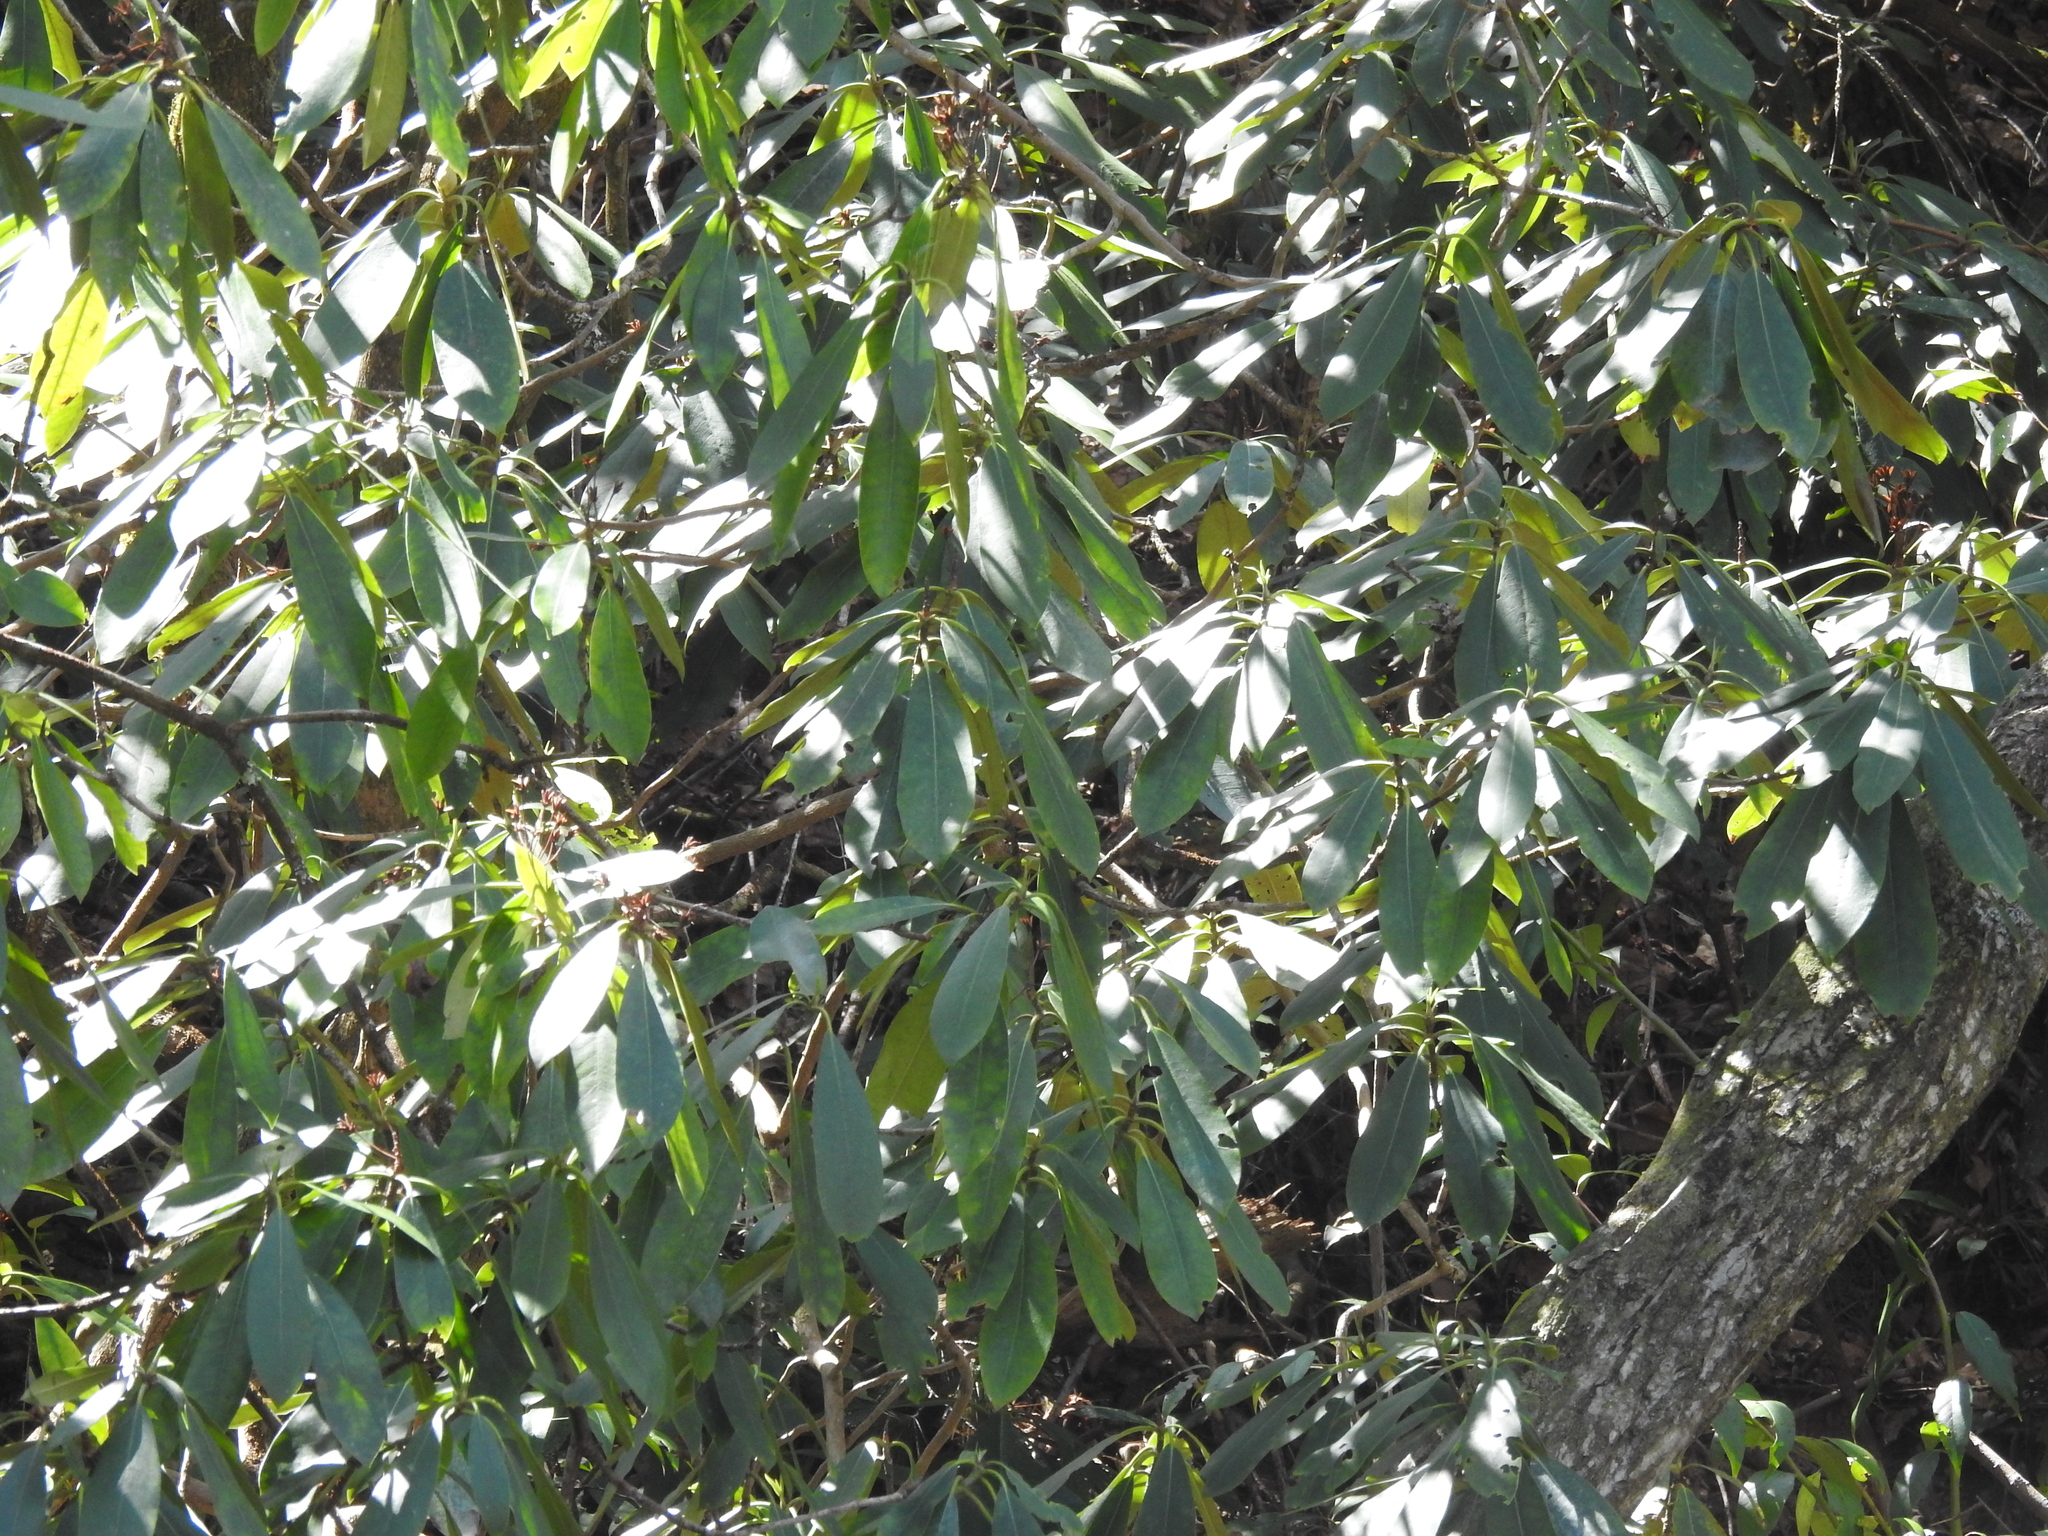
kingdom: Plantae
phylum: Tracheophyta
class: Magnoliopsida
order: Ericales
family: Ericaceae
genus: Rhododendron
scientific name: Rhododendron maximum
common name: Great rhododendron
